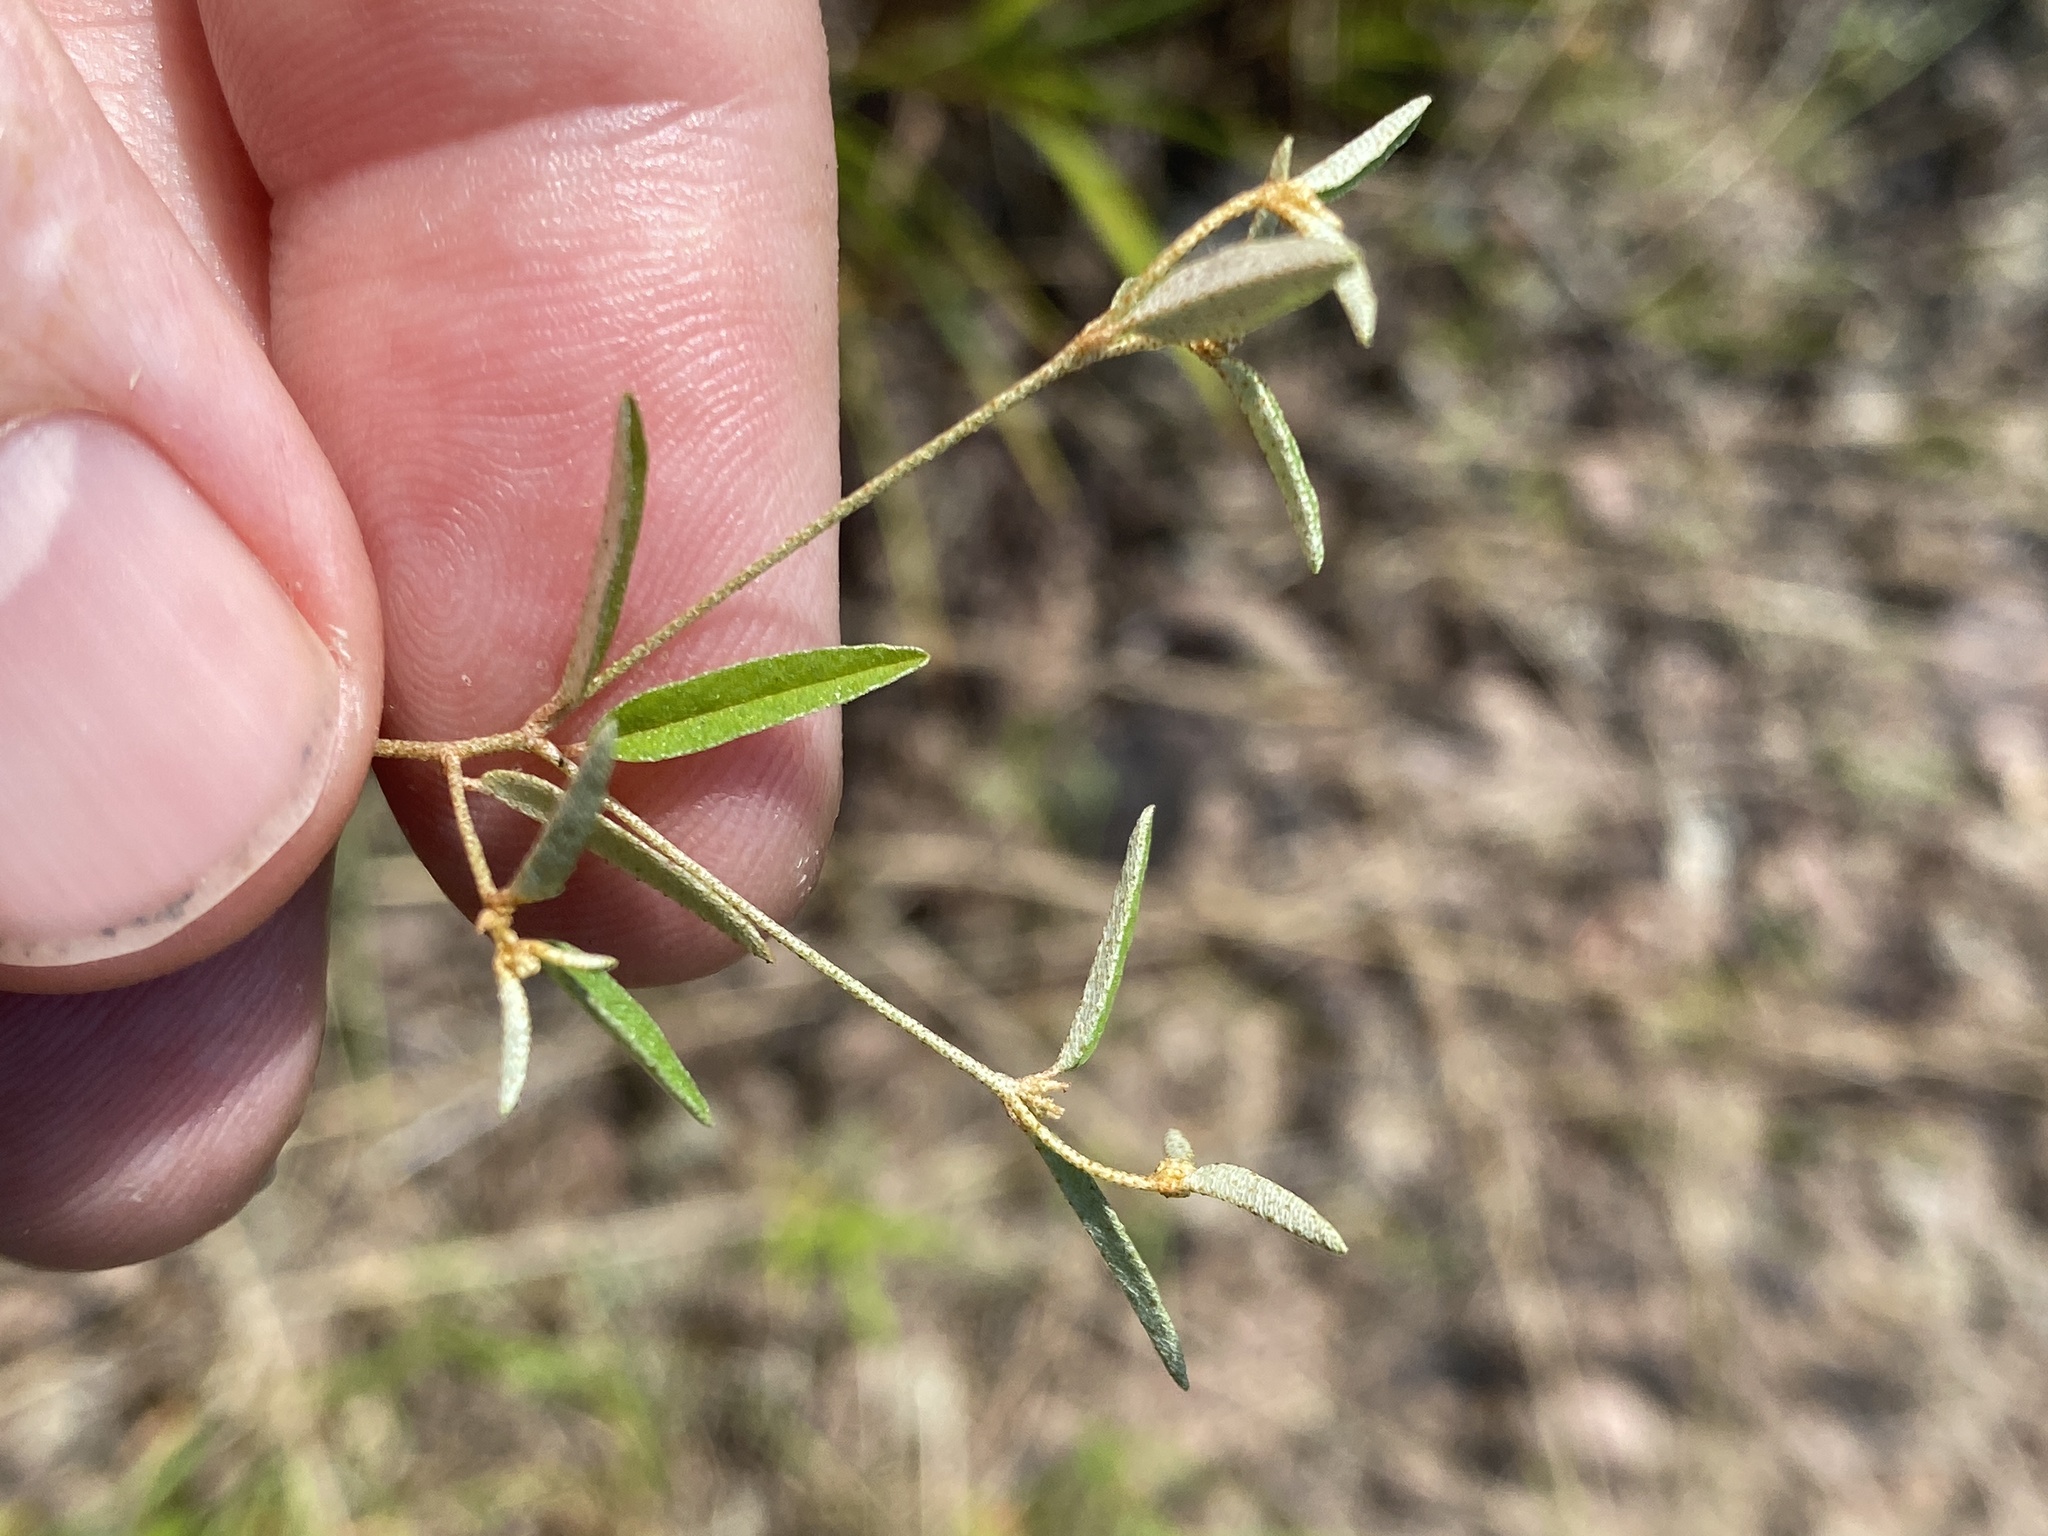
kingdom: Plantae
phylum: Tracheophyta
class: Magnoliopsida
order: Malpighiales
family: Euphorbiaceae
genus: Croton
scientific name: Croton michauxii
